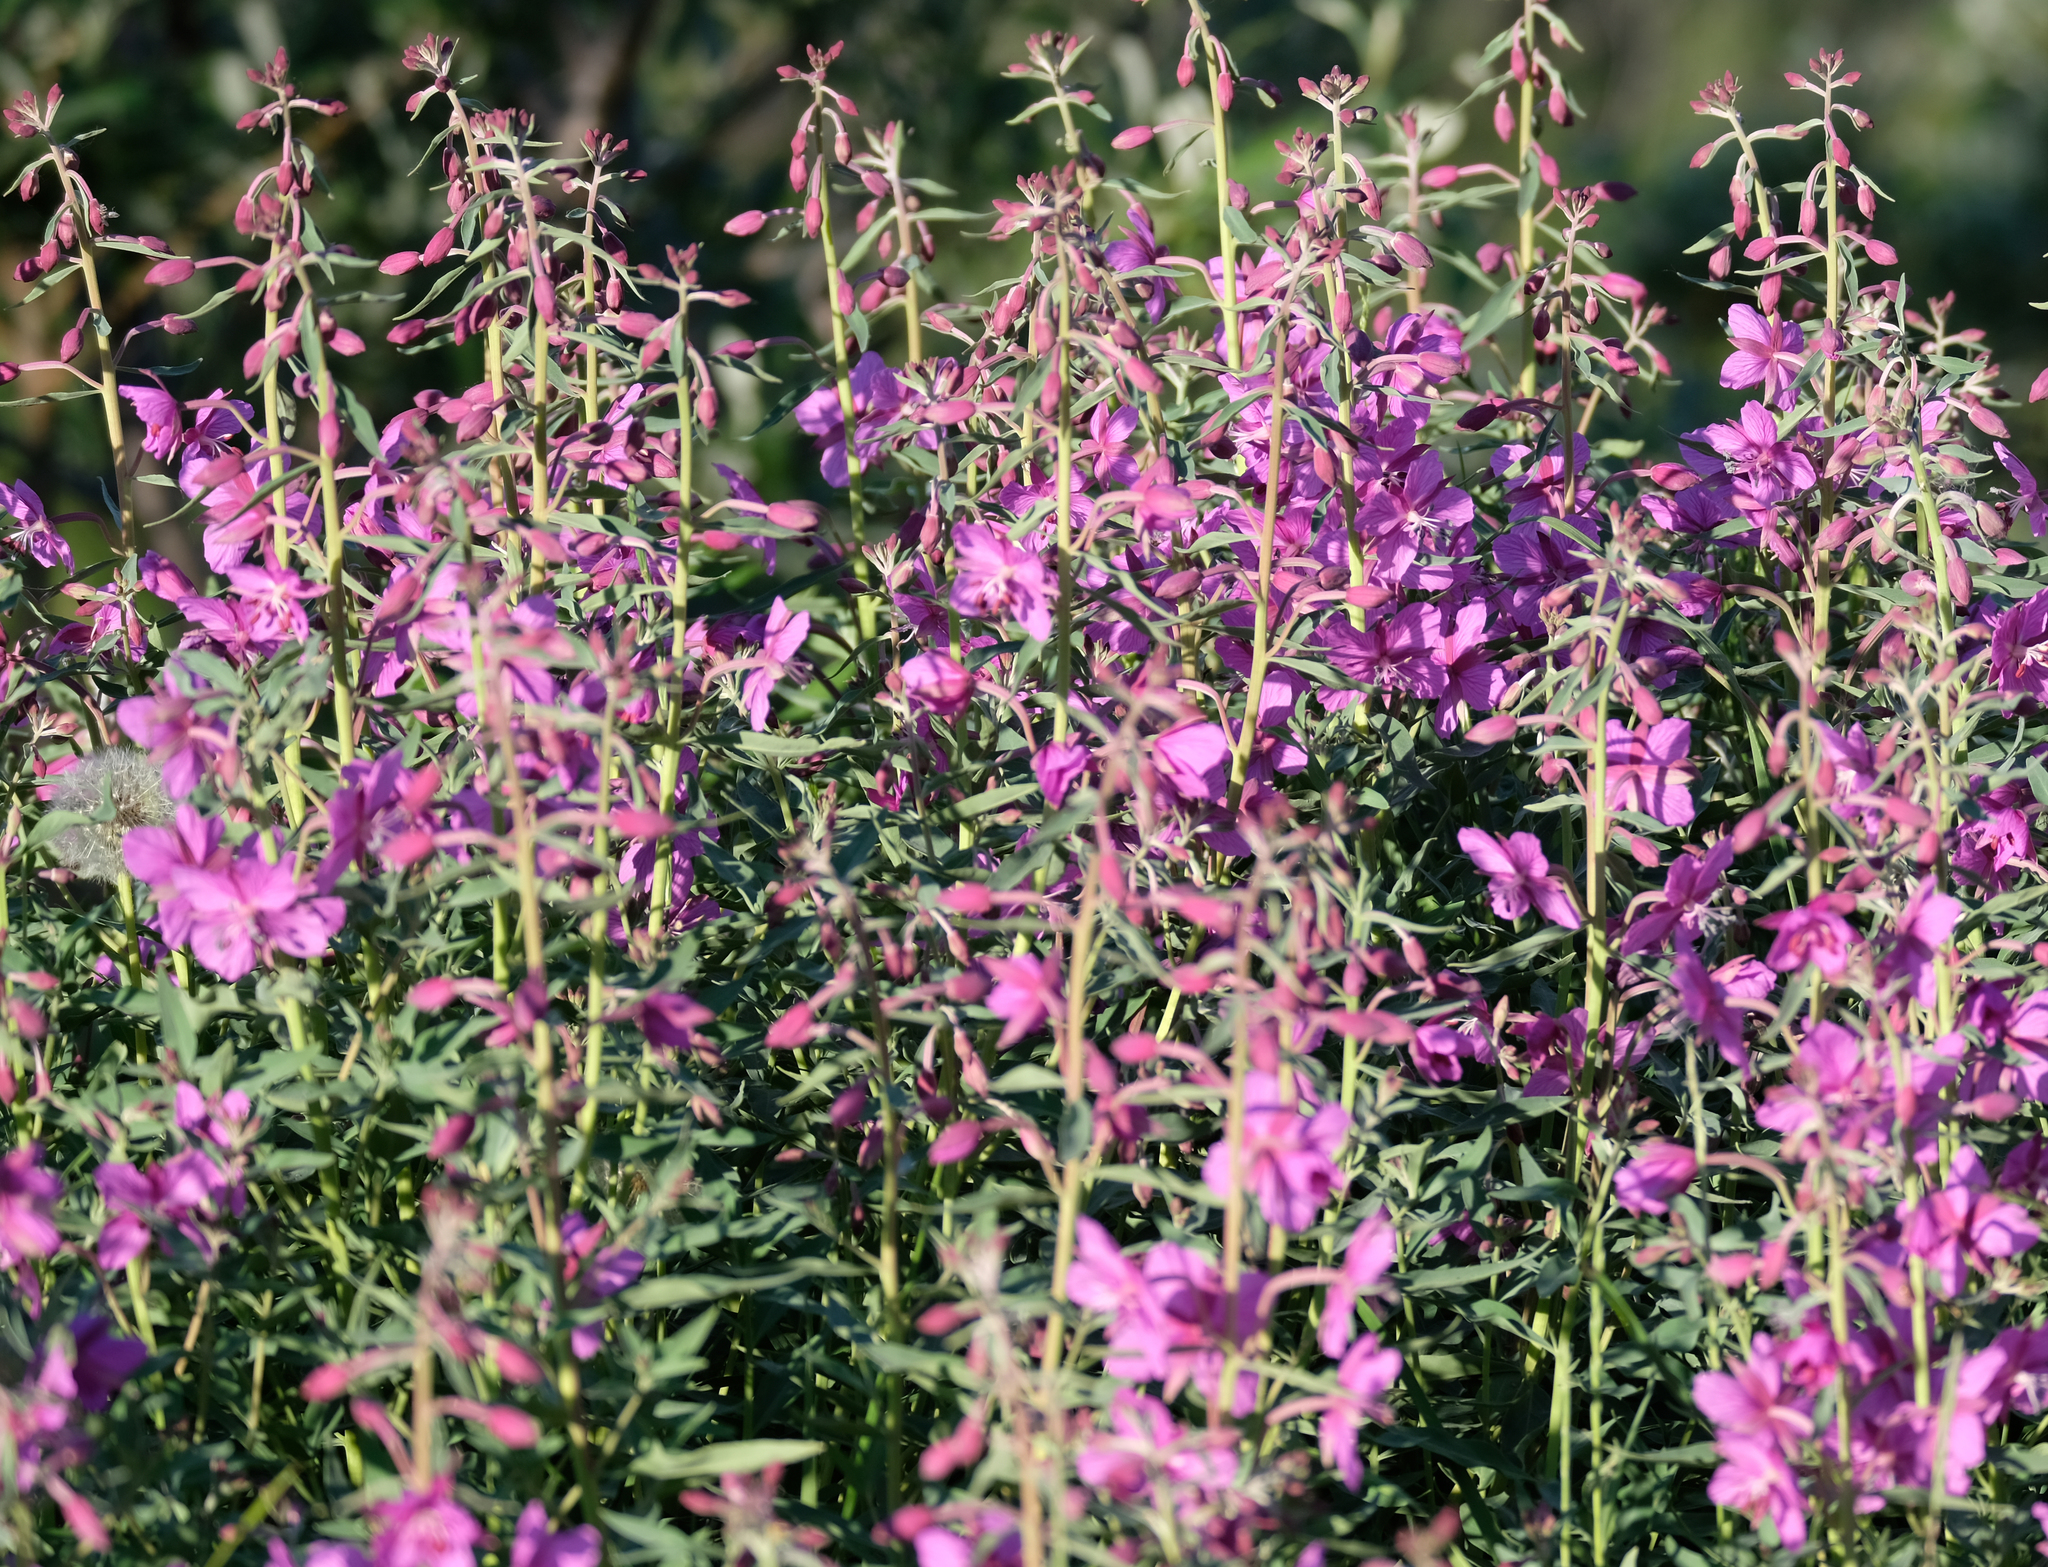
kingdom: Plantae
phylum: Tracheophyta
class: Magnoliopsida
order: Myrtales
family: Onagraceae
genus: Chamaenerion
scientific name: Chamaenerion latifolium
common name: Dwarf fireweed
